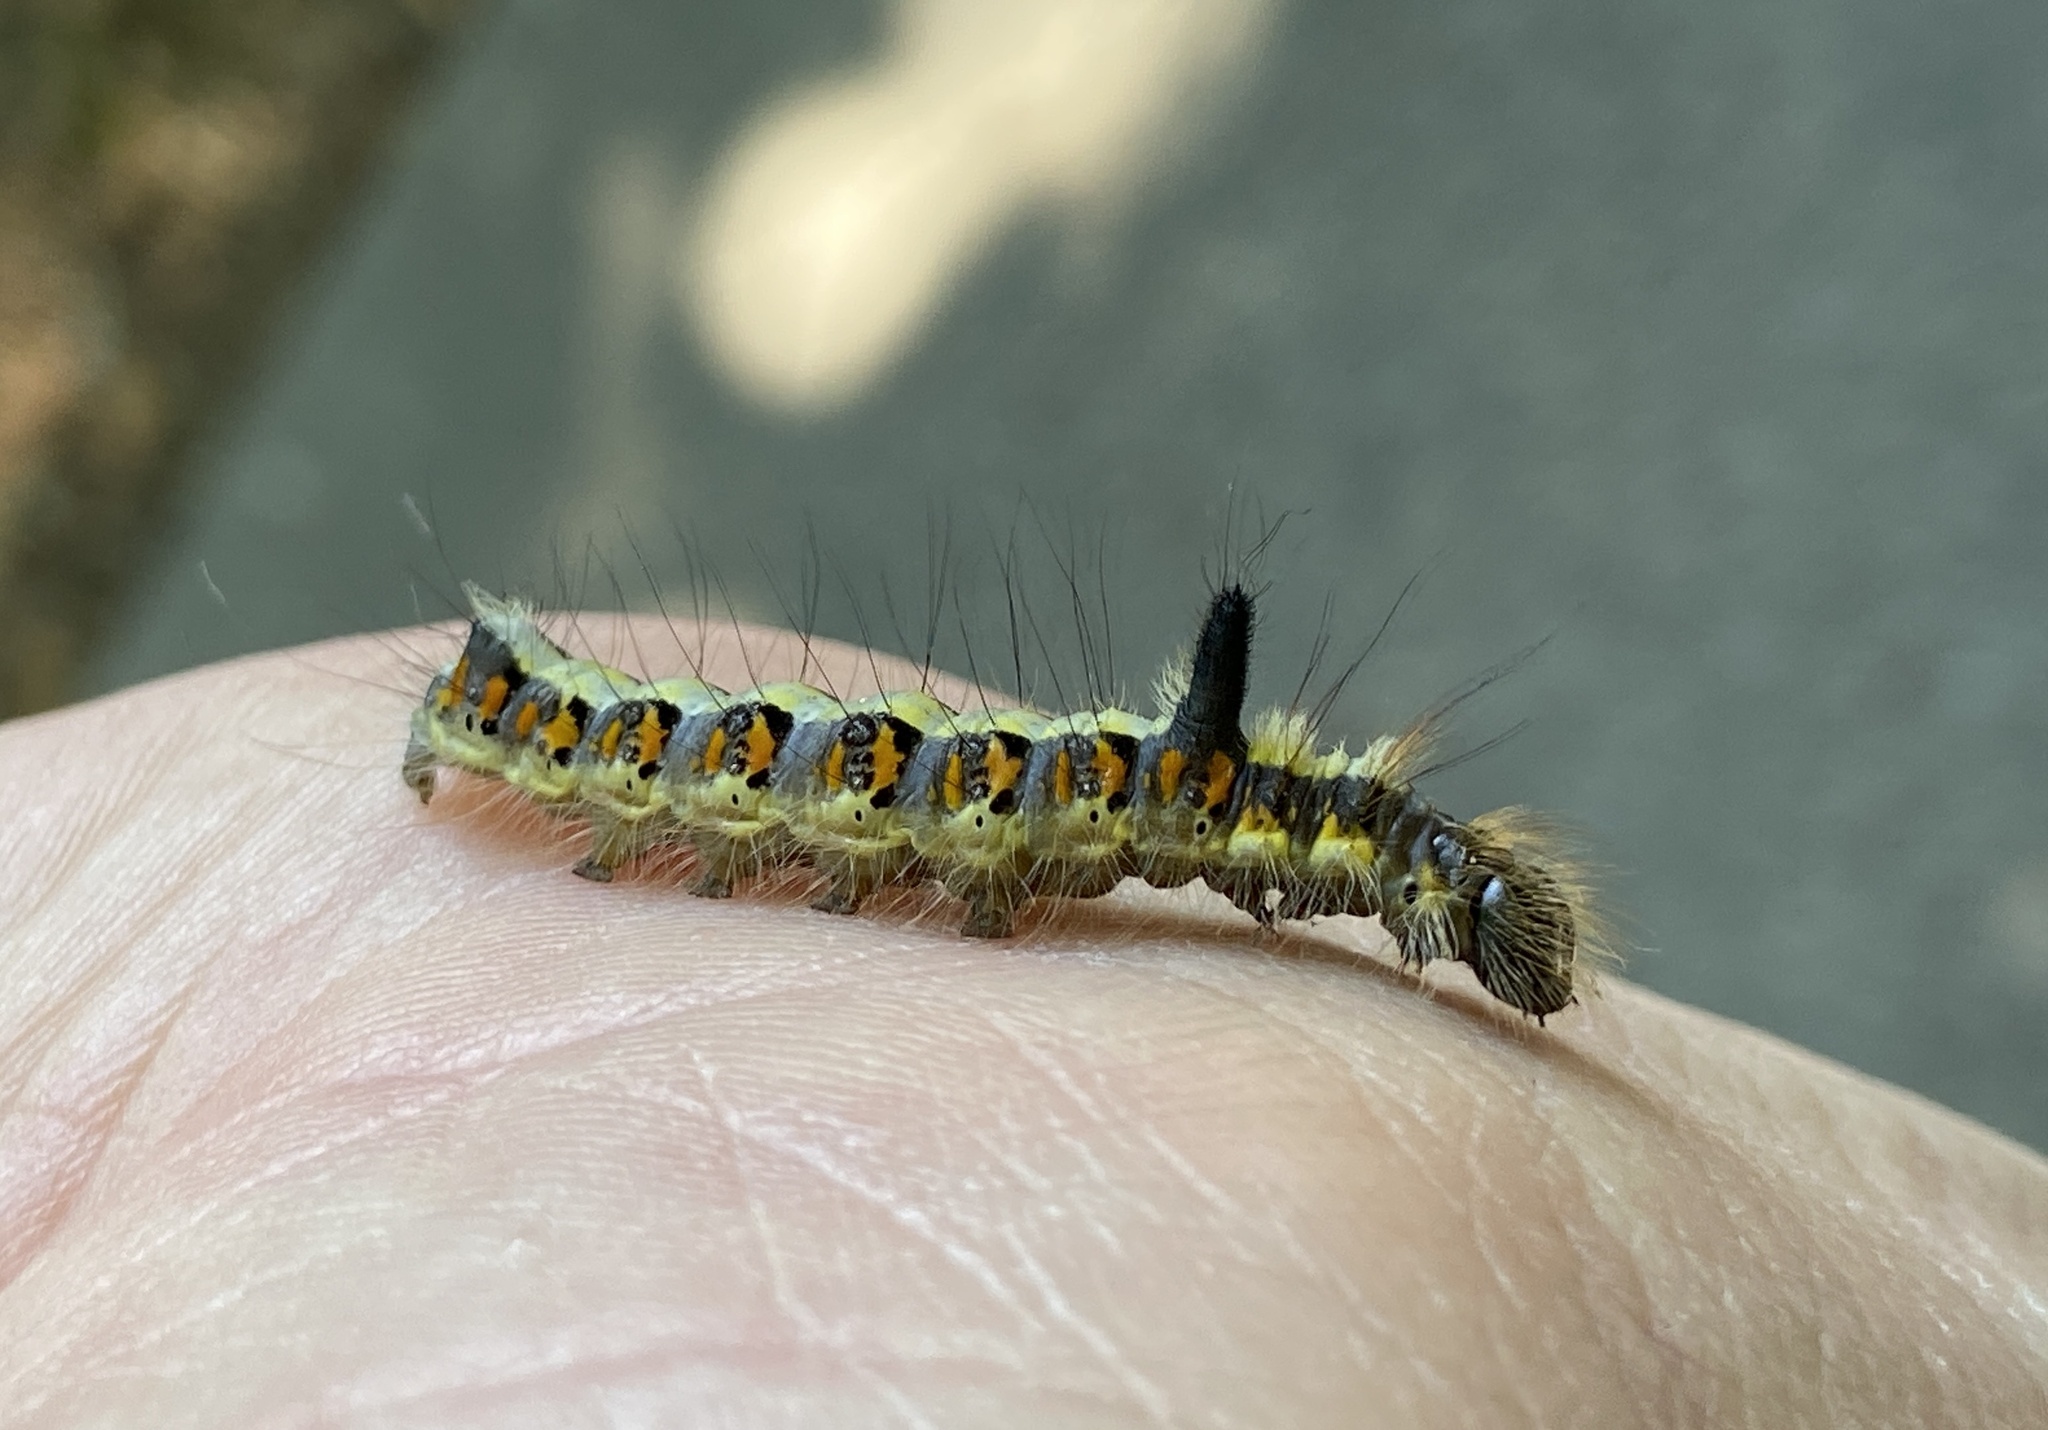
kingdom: Animalia
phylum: Arthropoda
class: Insecta
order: Lepidoptera
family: Noctuidae
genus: Acronicta
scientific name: Acronicta psi
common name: Grey dagger
